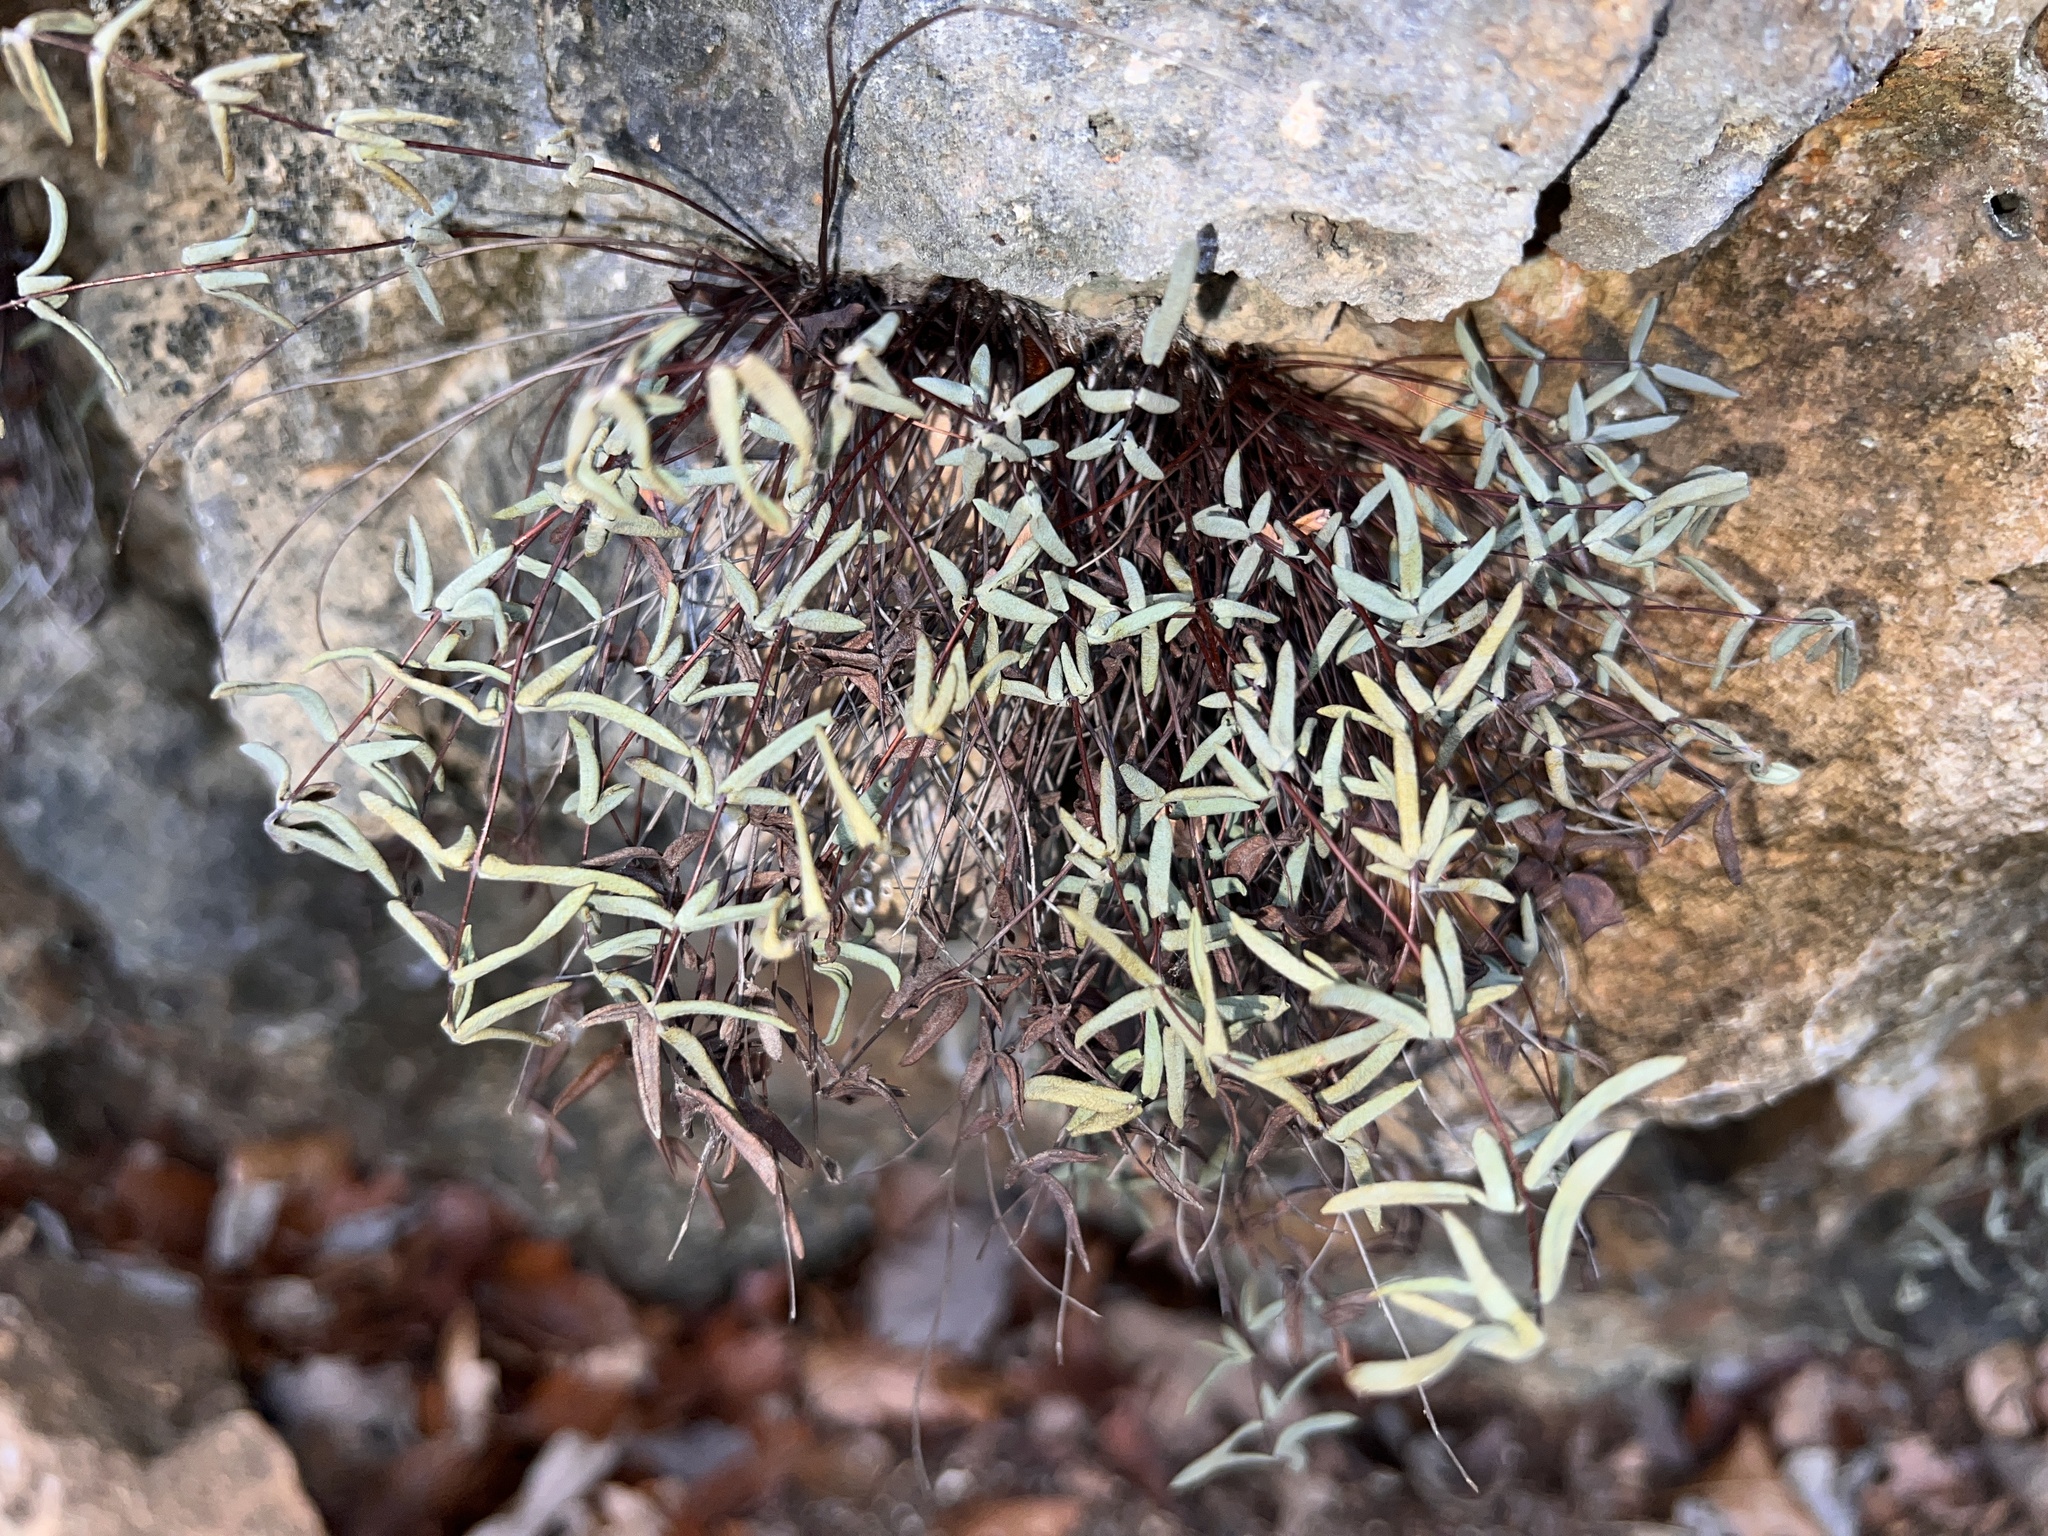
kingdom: Plantae
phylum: Tracheophyta
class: Polypodiopsida
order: Polypodiales
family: Pteridaceae
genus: Pellaea
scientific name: Pellaea glabella
